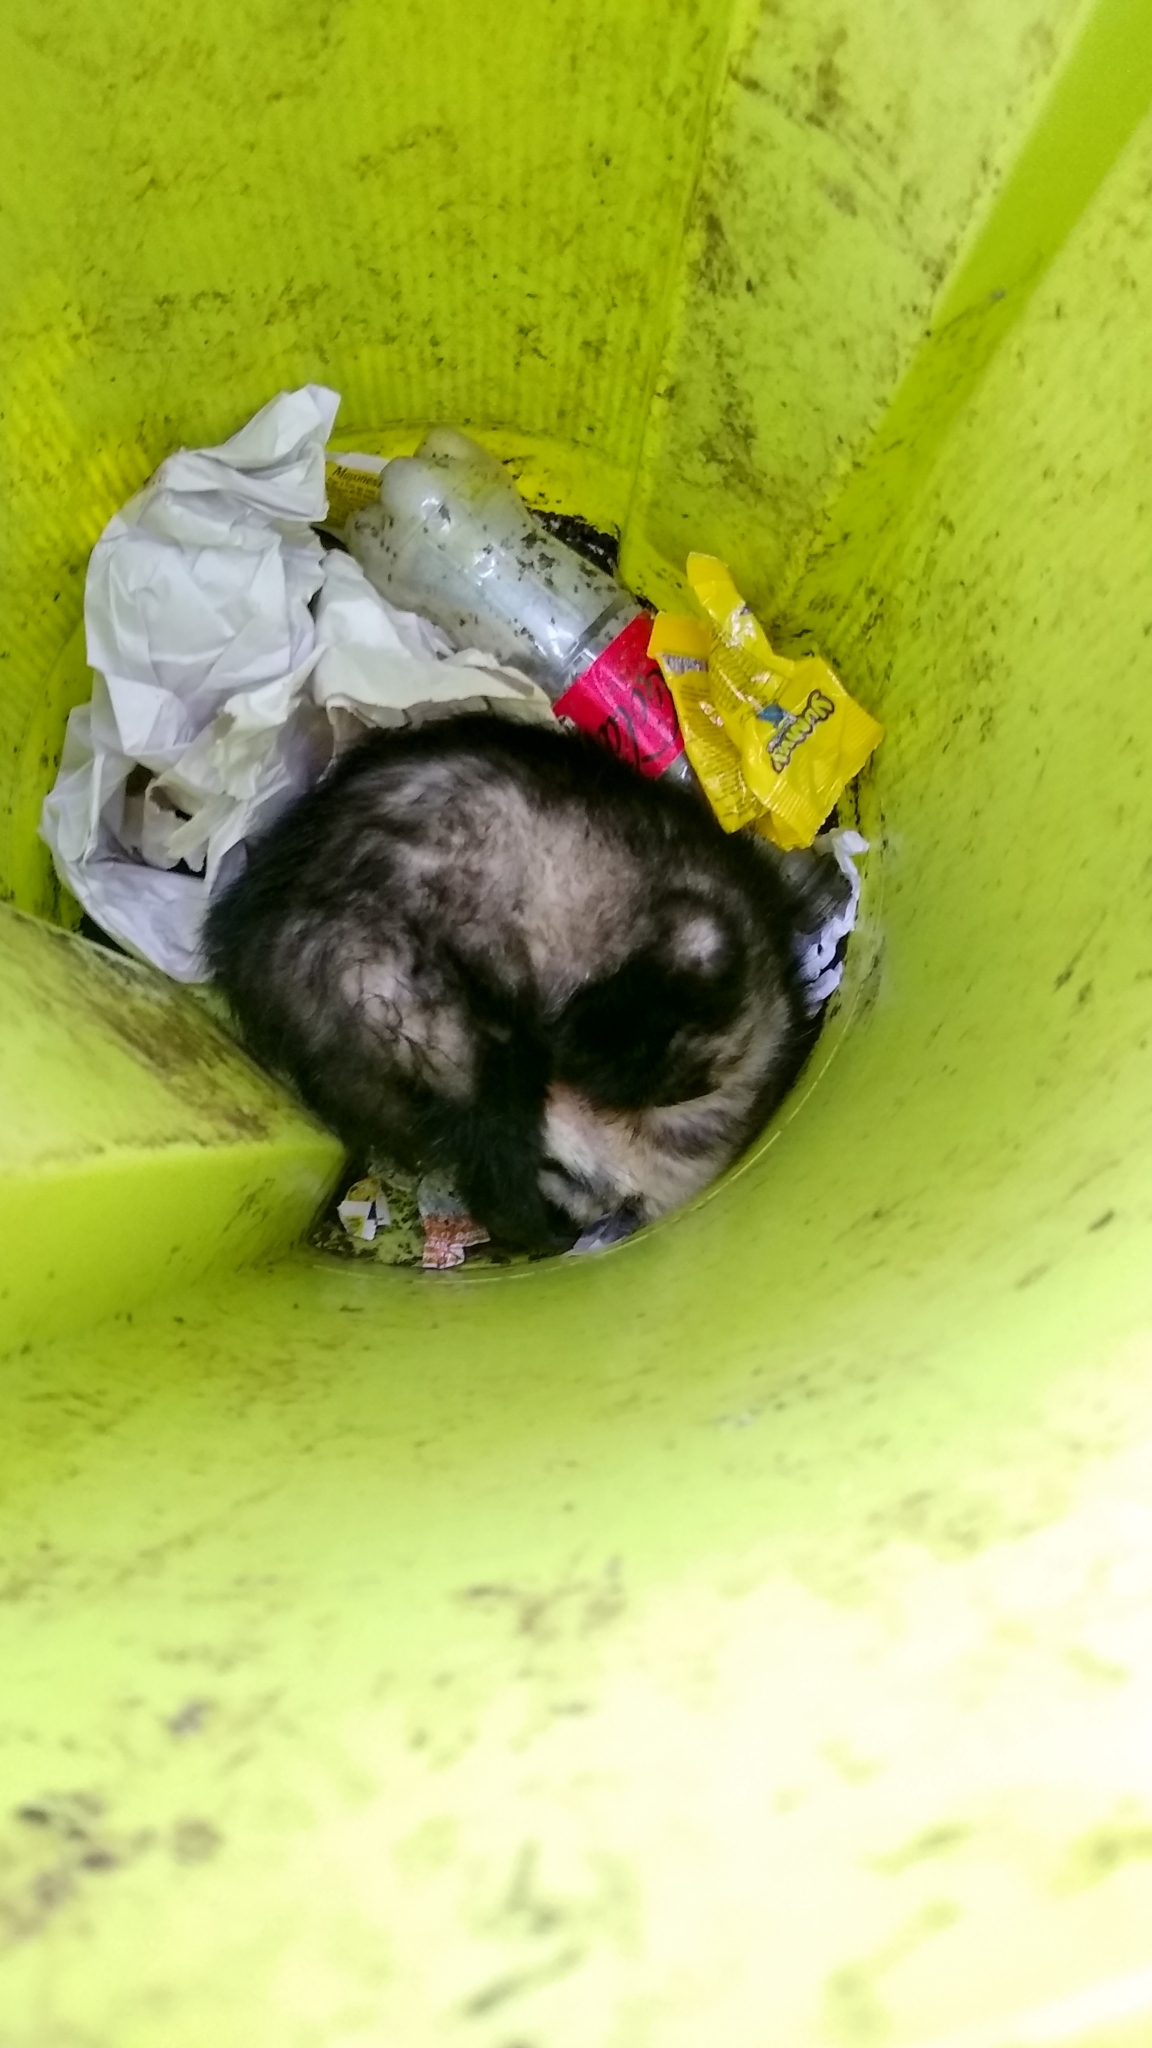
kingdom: Animalia
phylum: Chordata
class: Mammalia
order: Didelphimorphia
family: Didelphidae
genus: Didelphis
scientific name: Didelphis albiventris
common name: White-eared opossum
